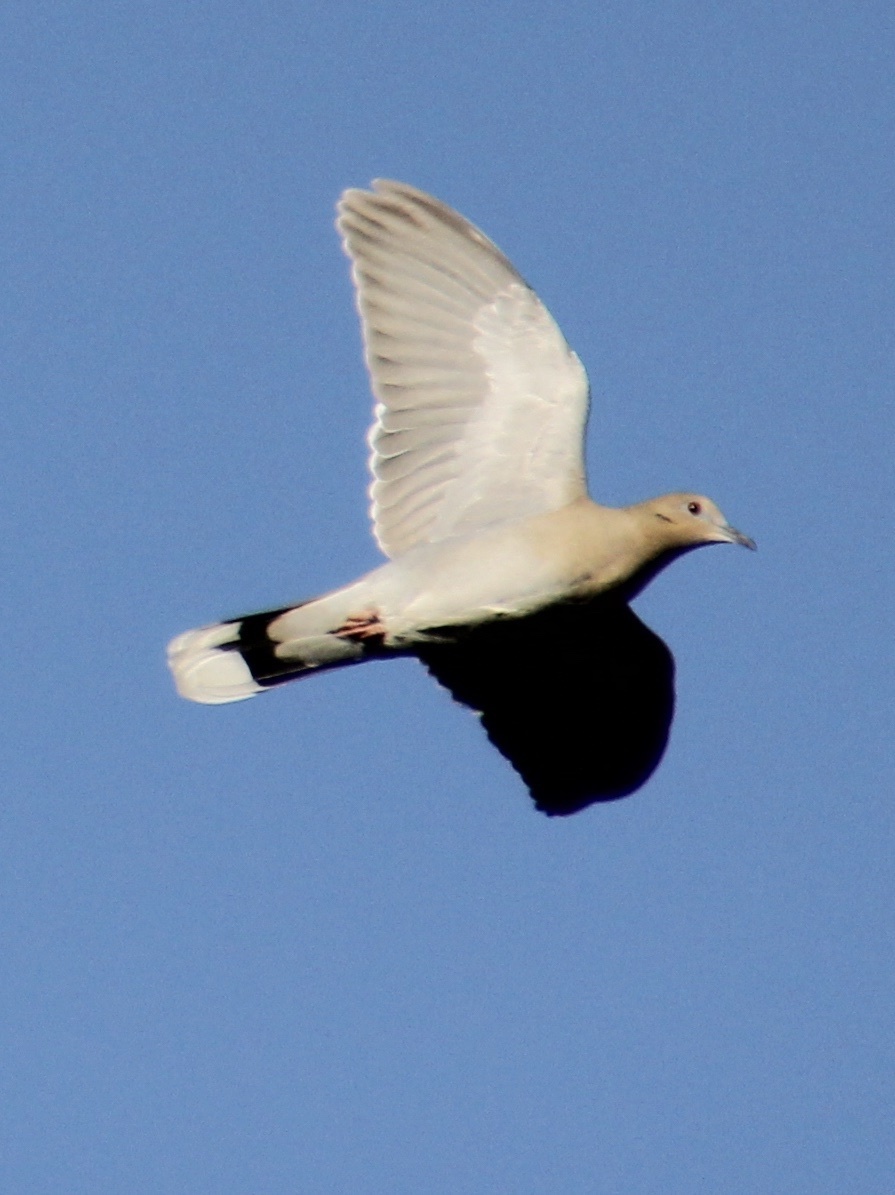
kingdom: Animalia
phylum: Chordata
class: Aves
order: Columbiformes
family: Columbidae
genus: Streptopelia
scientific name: Streptopelia decaocto
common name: Eurasian collared dove
